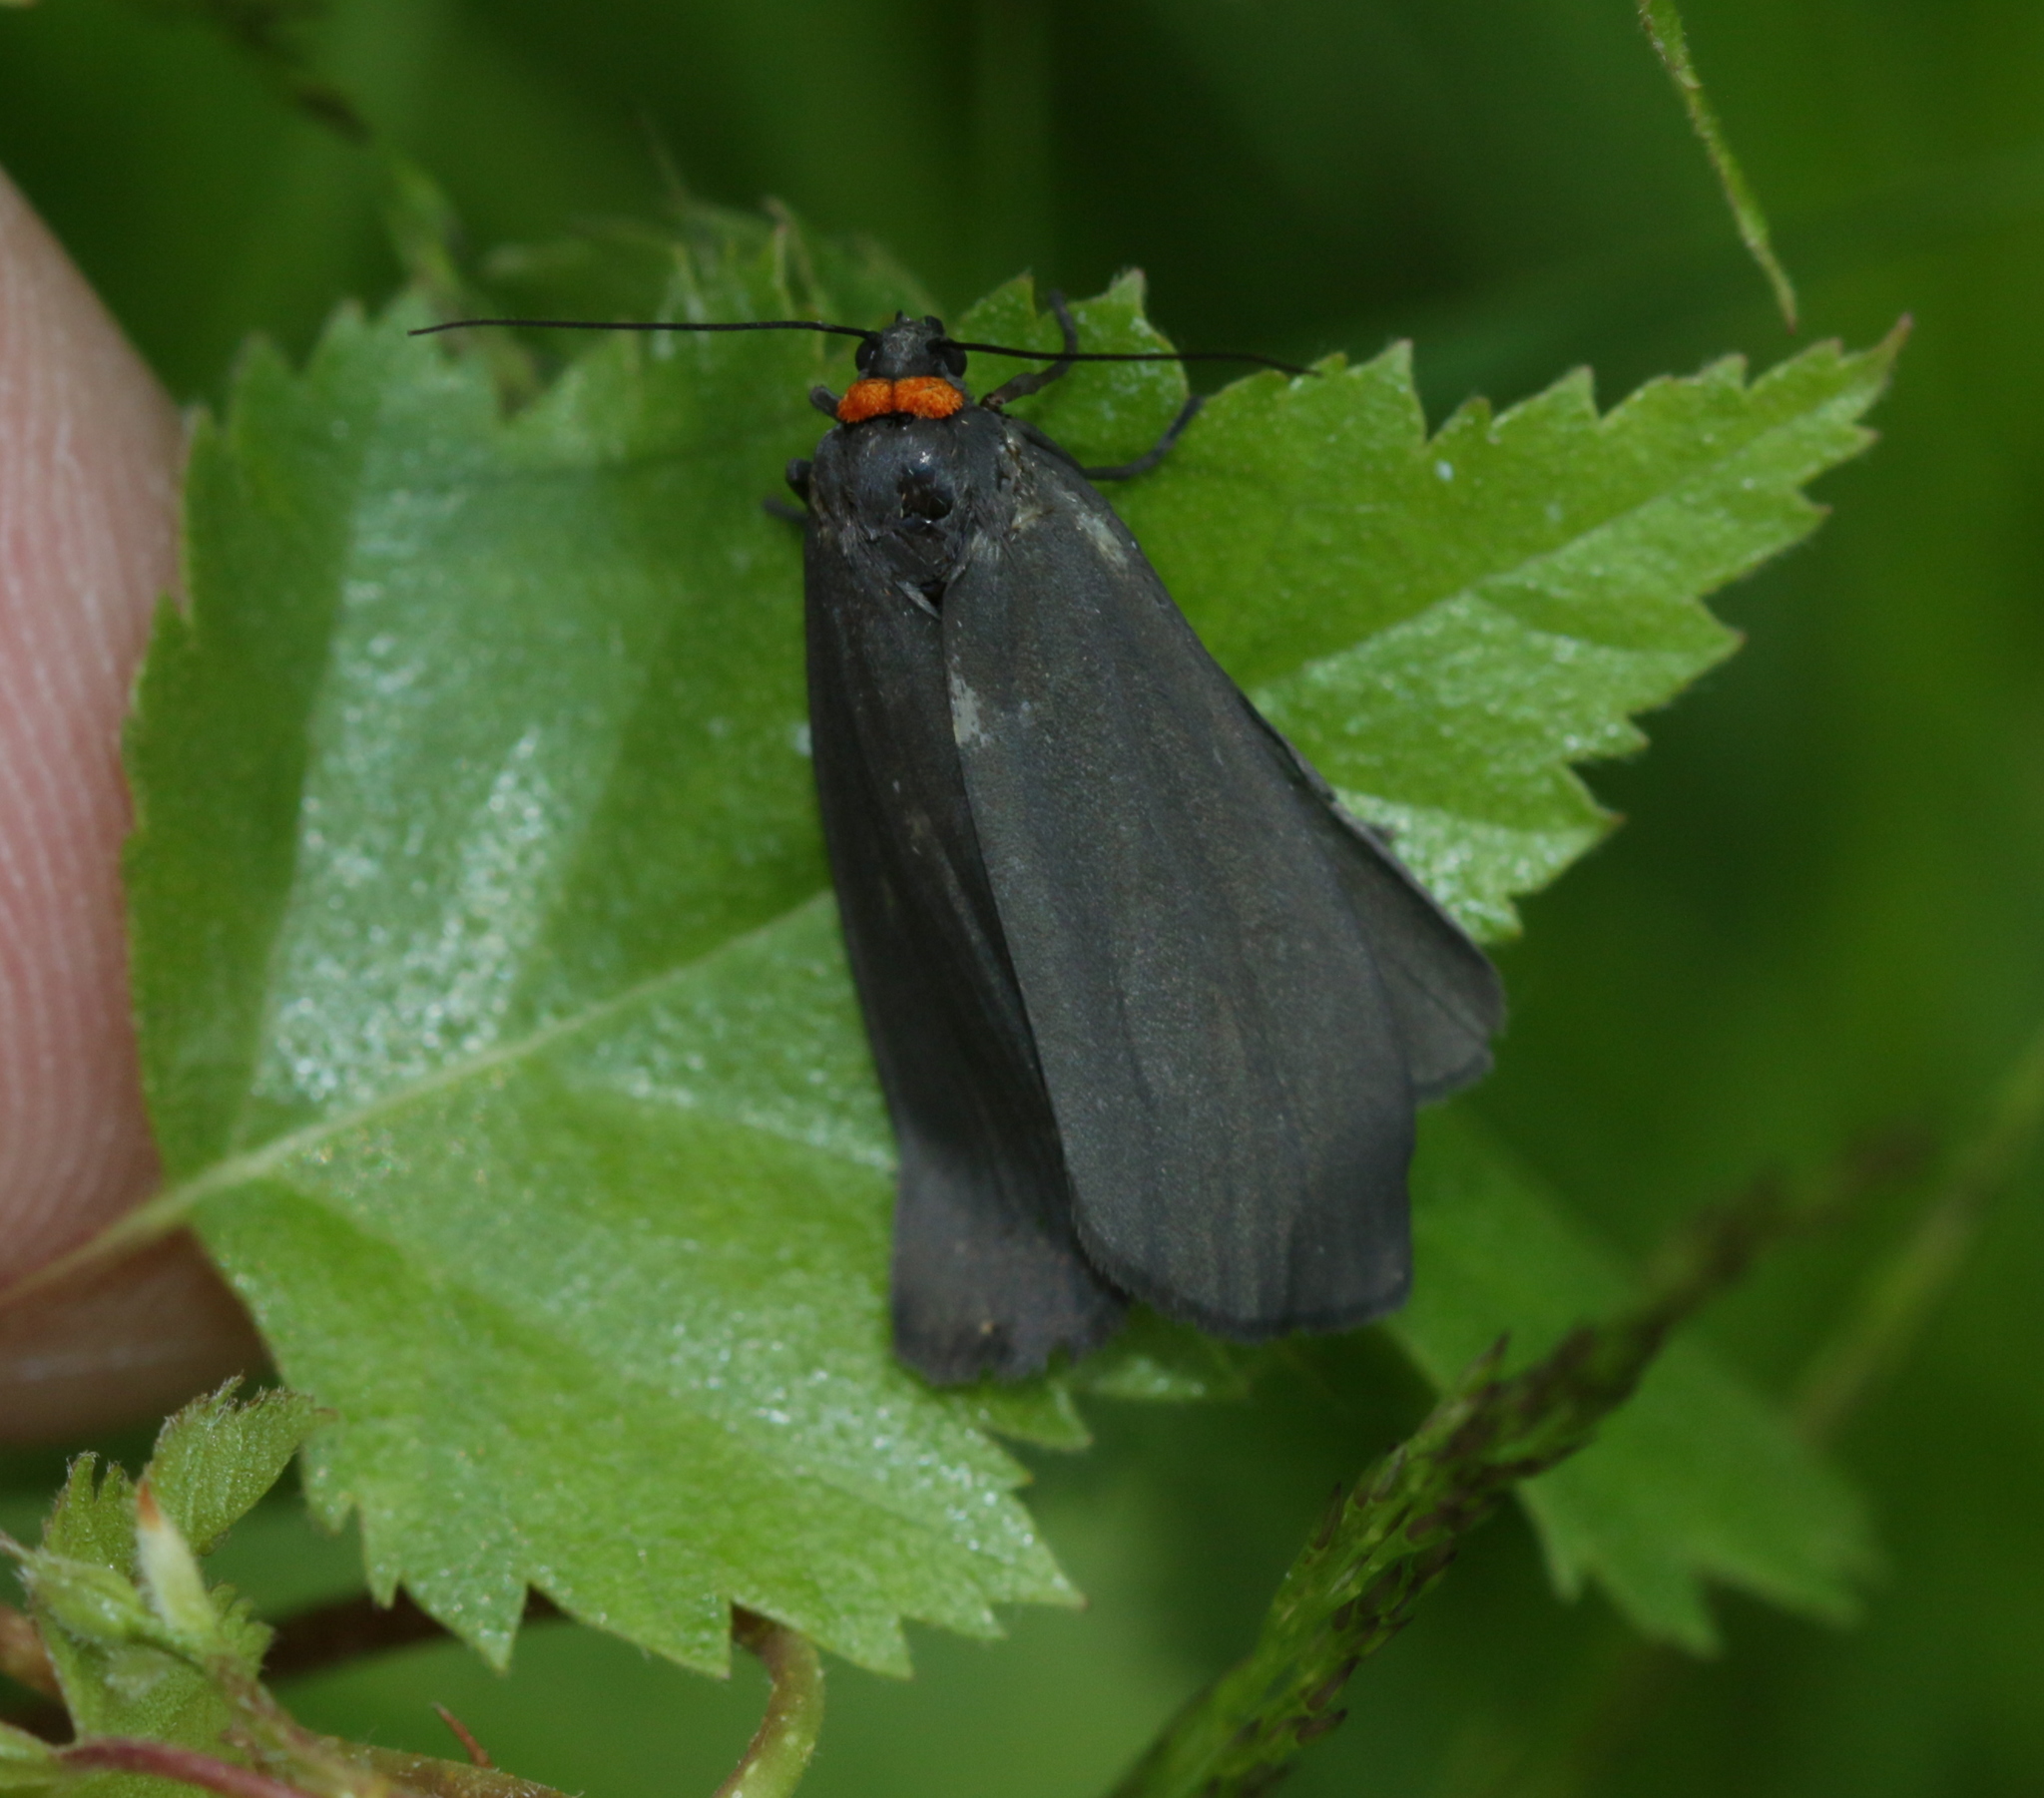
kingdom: Animalia
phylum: Arthropoda
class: Insecta
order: Lepidoptera
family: Erebidae
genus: Atolmis
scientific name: Atolmis rubricollis
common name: Red-necked footman
